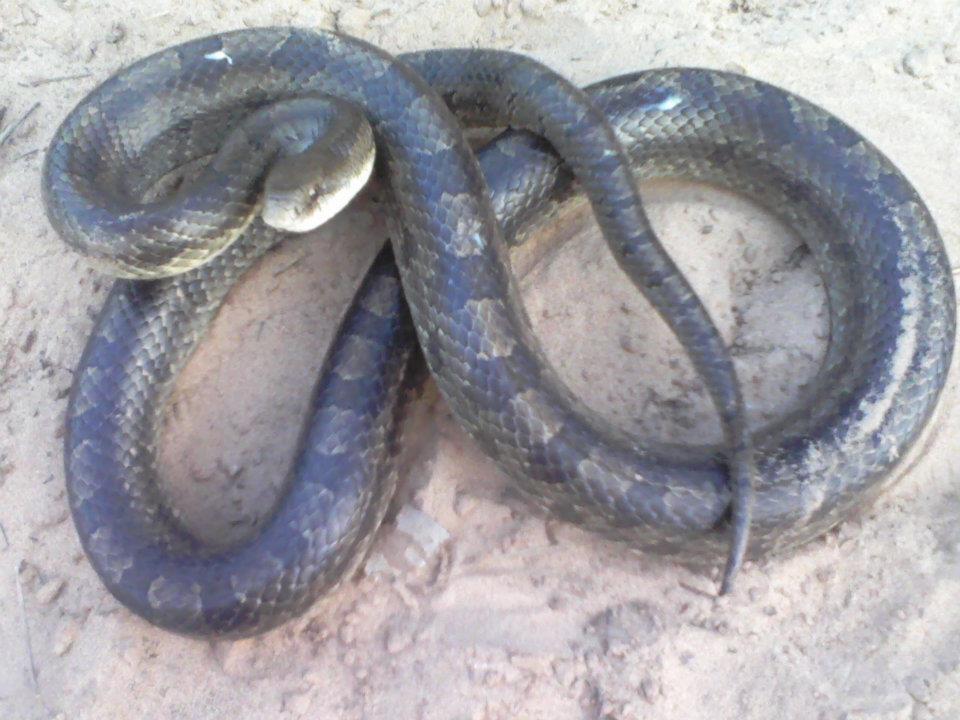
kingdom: Animalia
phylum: Chordata
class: Squamata
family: Colubridae
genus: Lampropeltis
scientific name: Lampropeltis calligaster
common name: Prairie kingsnake
